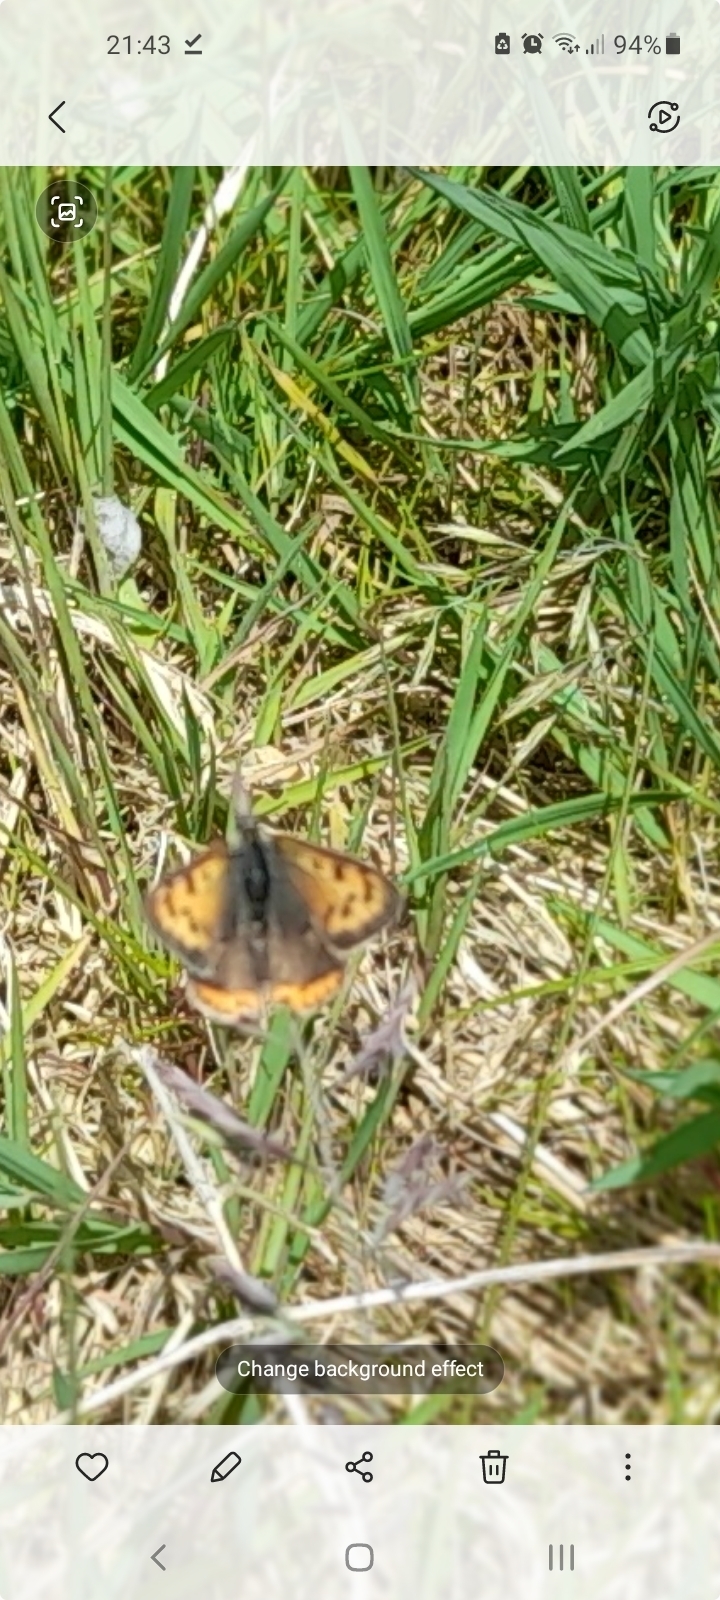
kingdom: Animalia
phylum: Arthropoda
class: Insecta
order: Lepidoptera
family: Lycaenidae
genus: Lycaena
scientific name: Lycaena phlaeas
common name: Small copper
